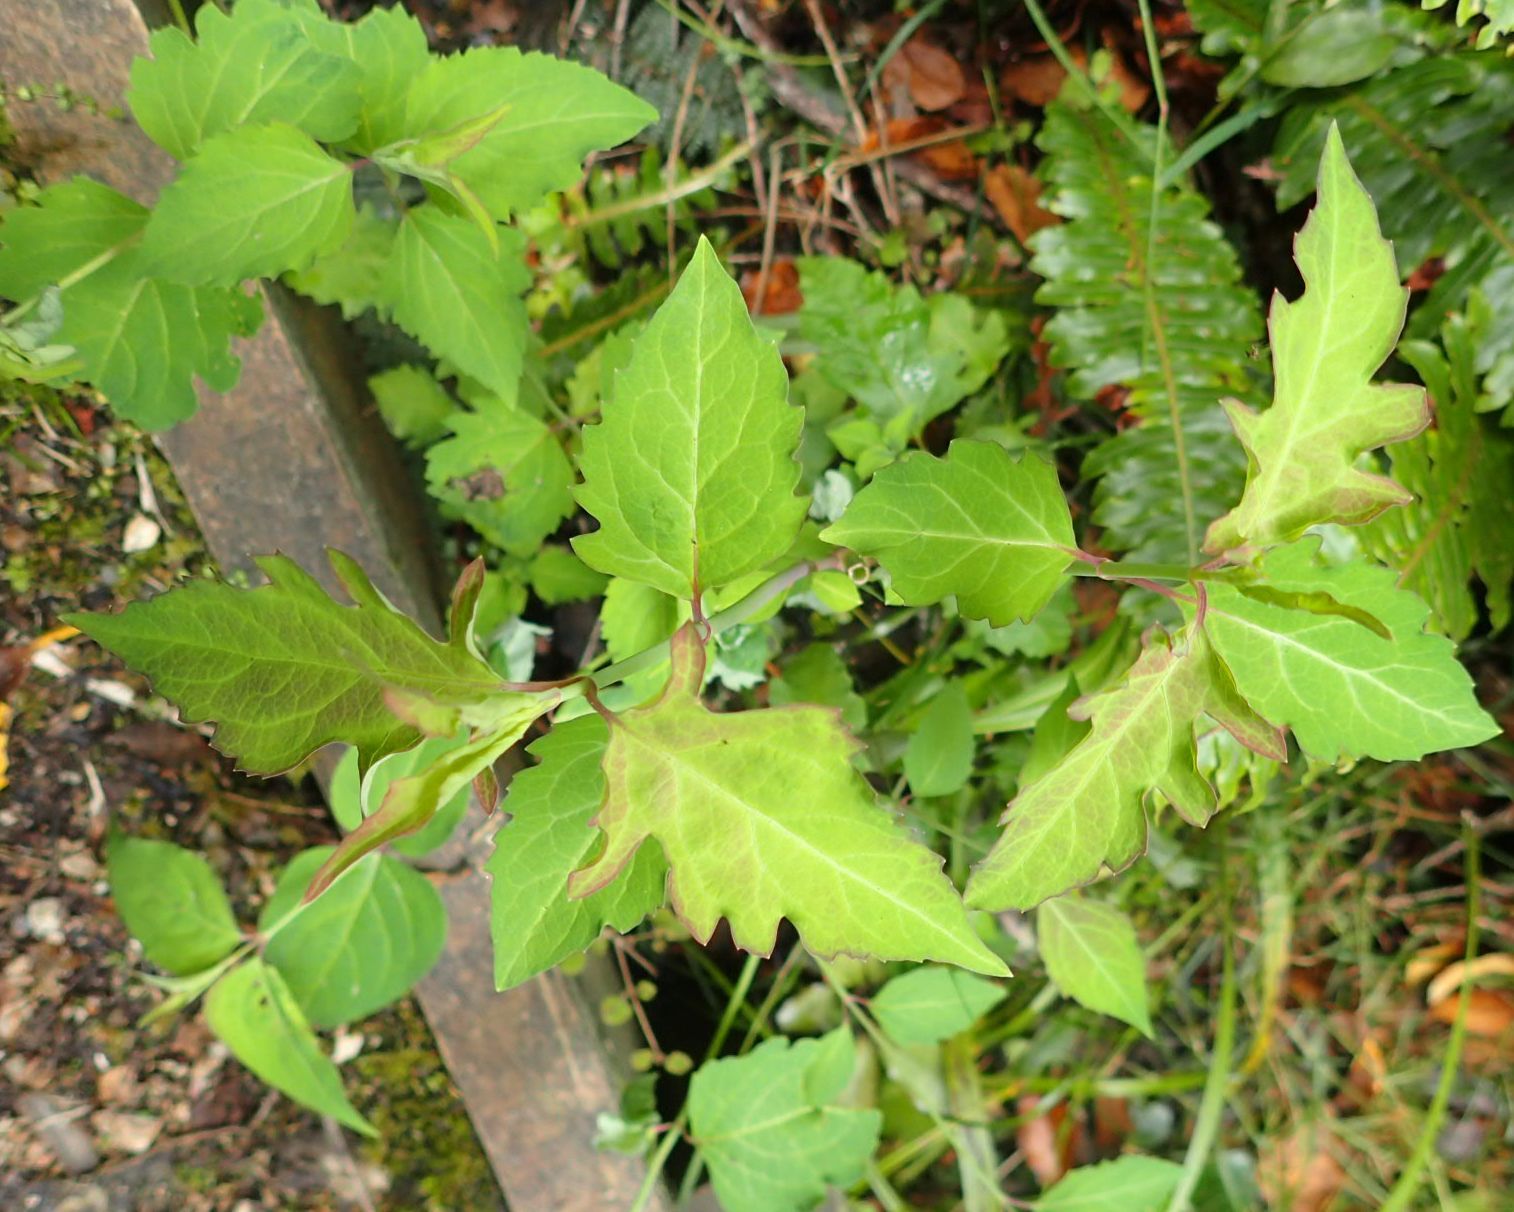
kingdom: Plantae
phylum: Tracheophyta
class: Magnoliopsida
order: Dipsacales
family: Caprifoliaceae
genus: Leycesteria
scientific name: Leycesteria formosa
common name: Himalayan honeysuckle
